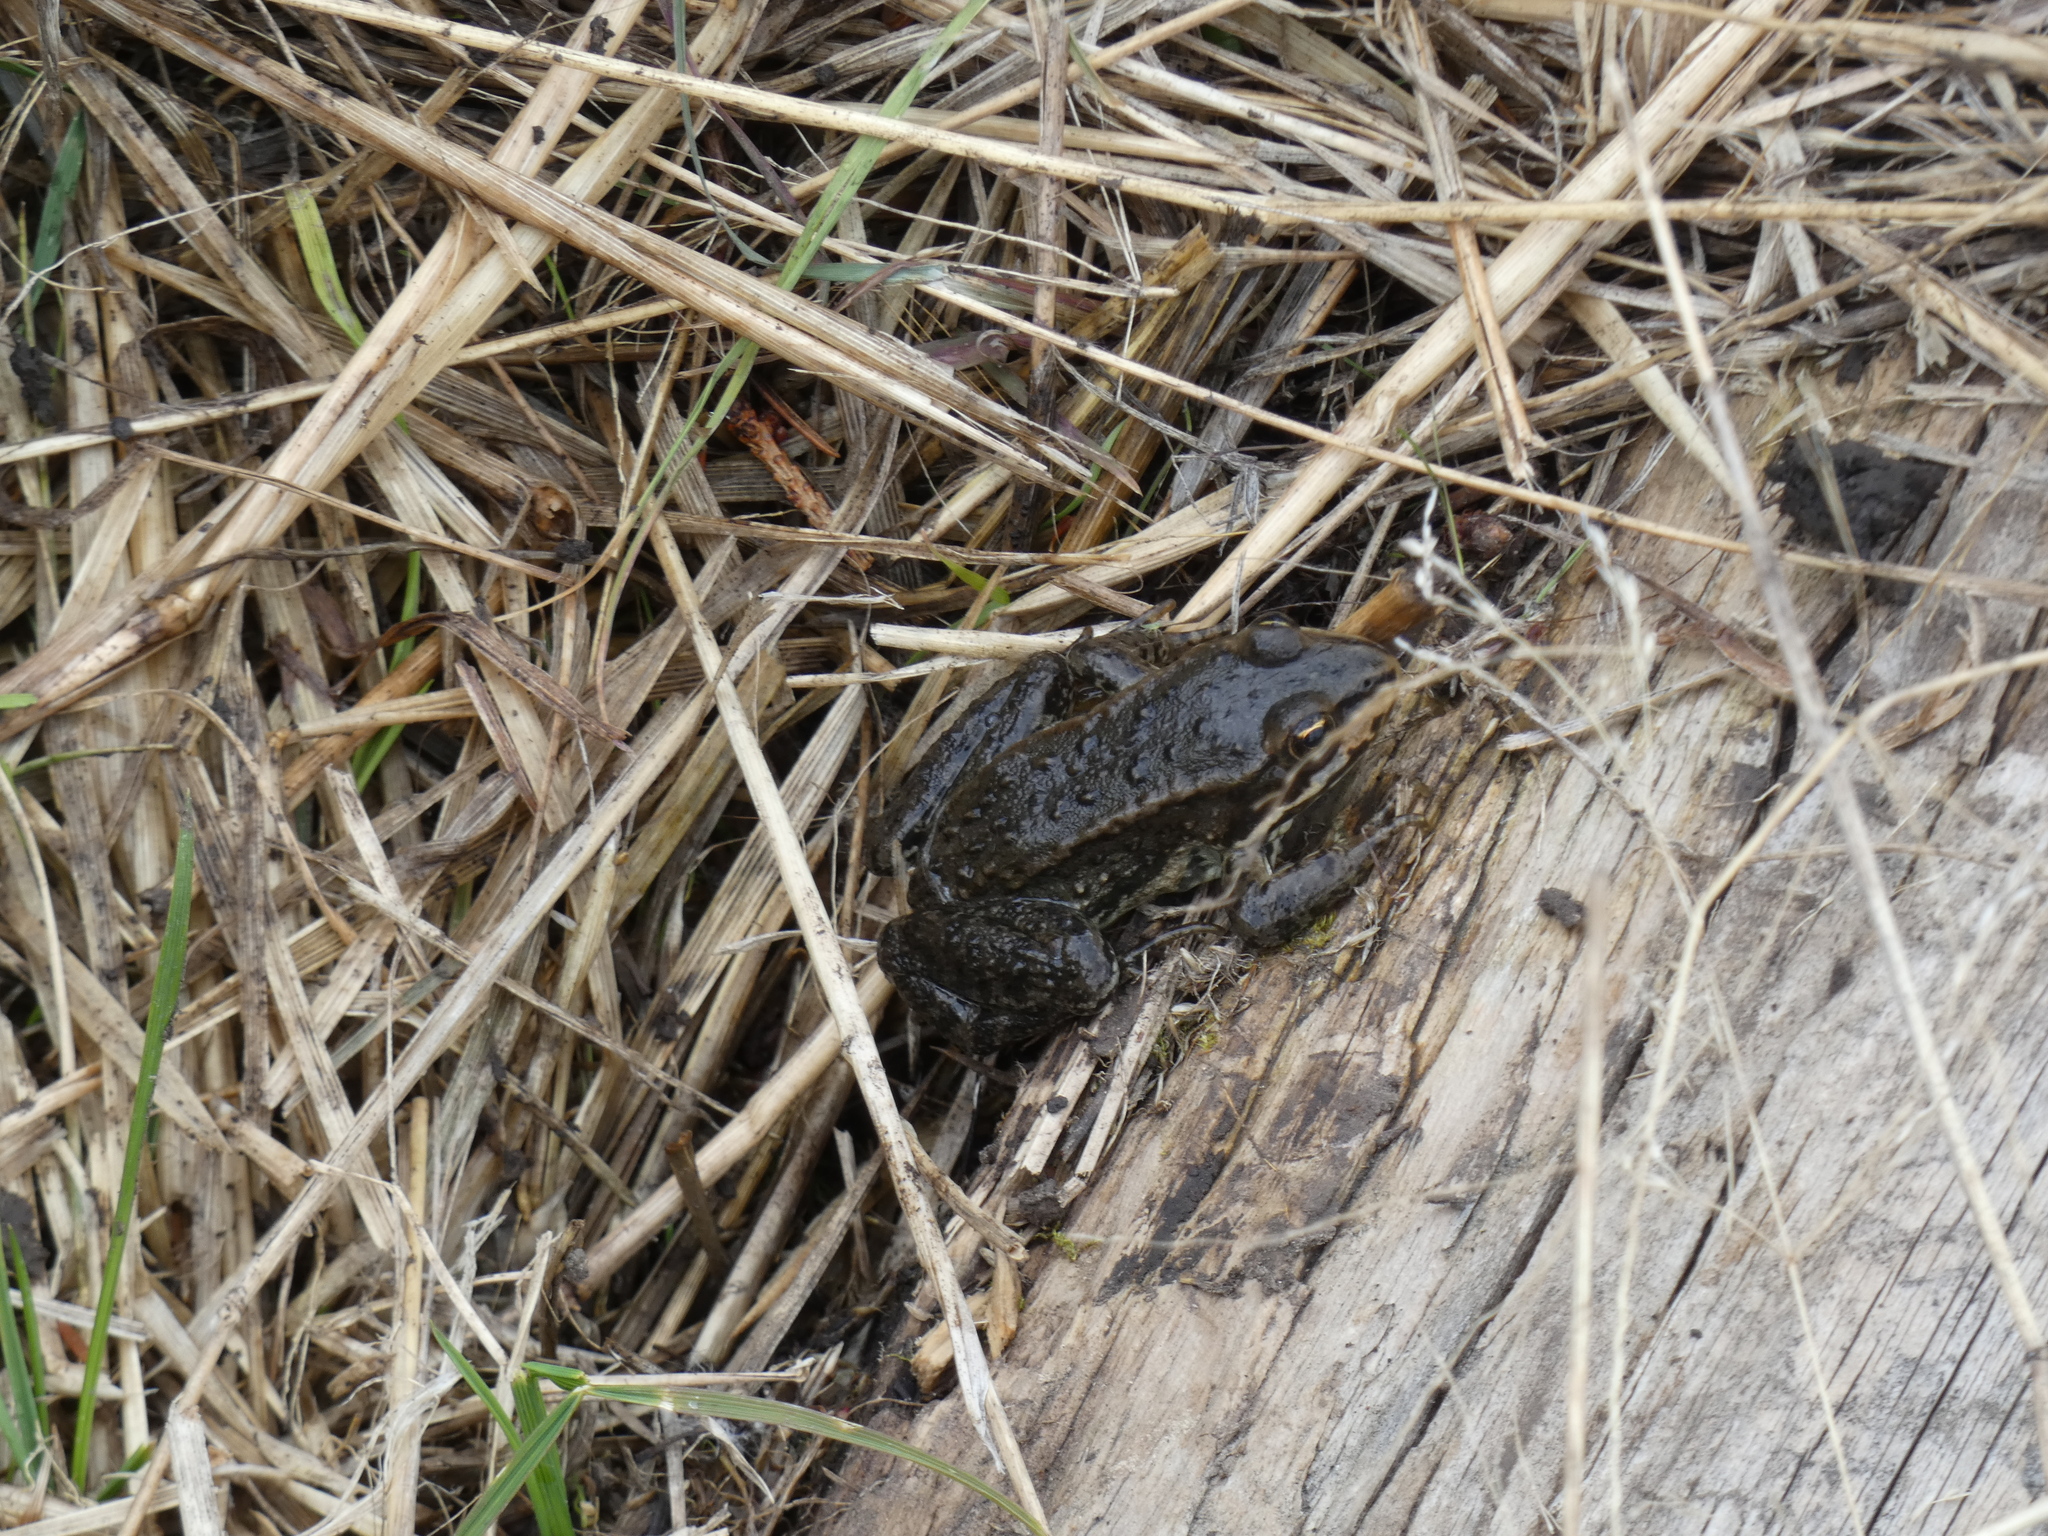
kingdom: Animalia
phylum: Chordata
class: Amphibia
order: Anura
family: Ranidae
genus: Rana
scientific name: Rana luteiventris
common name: Columbia spotted frog
